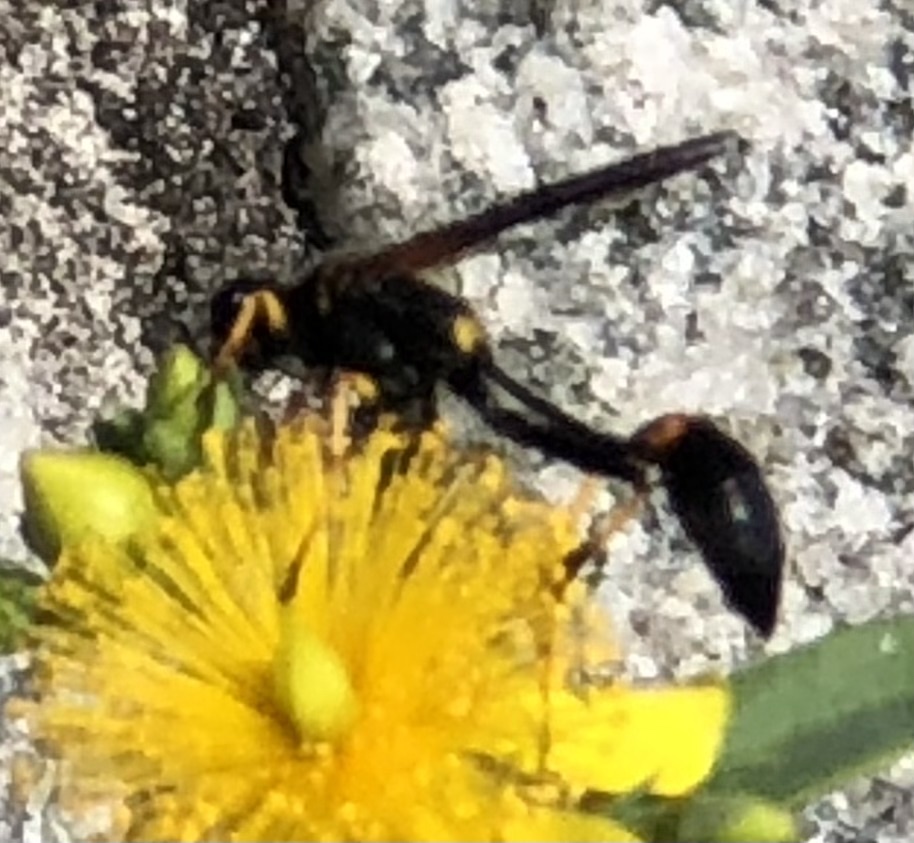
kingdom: Animalia
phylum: Arthropoda
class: Insecta
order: Hymenoptera
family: Sphecidae
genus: Sceliphron
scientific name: Sceliphron caementarium
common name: Mud dauber
